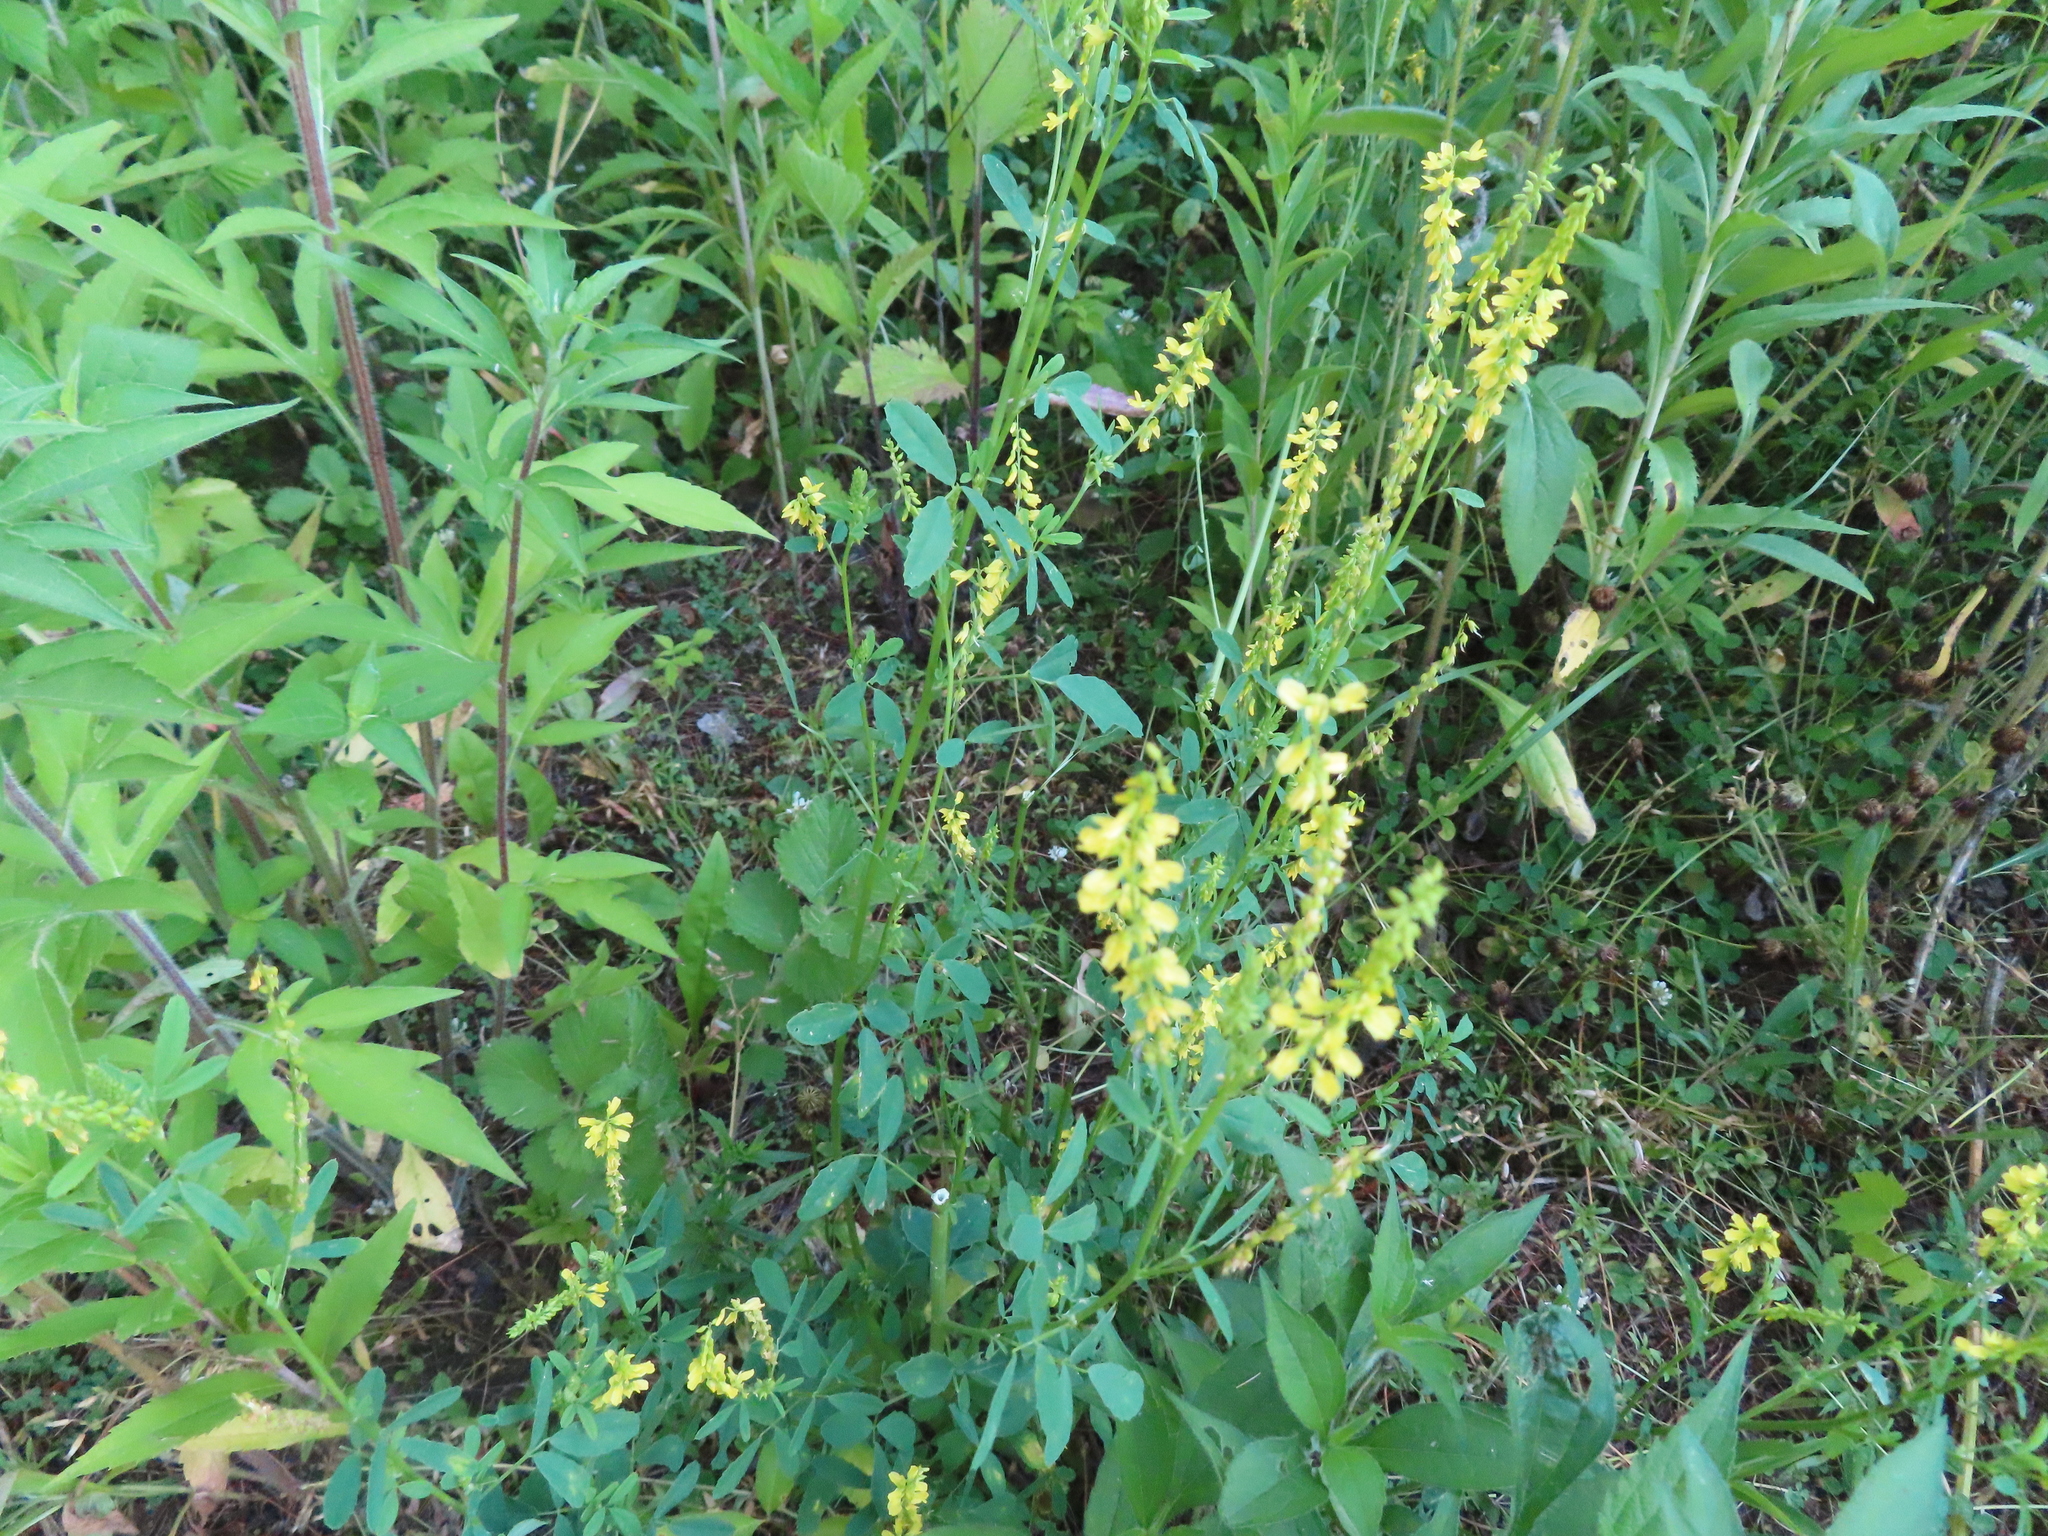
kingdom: Plantae
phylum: Tracheophyta
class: Magnoliopsida
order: Fabales
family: Fabaceae
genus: Melilotus
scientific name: Melilotus officinalis
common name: Sweetclover
